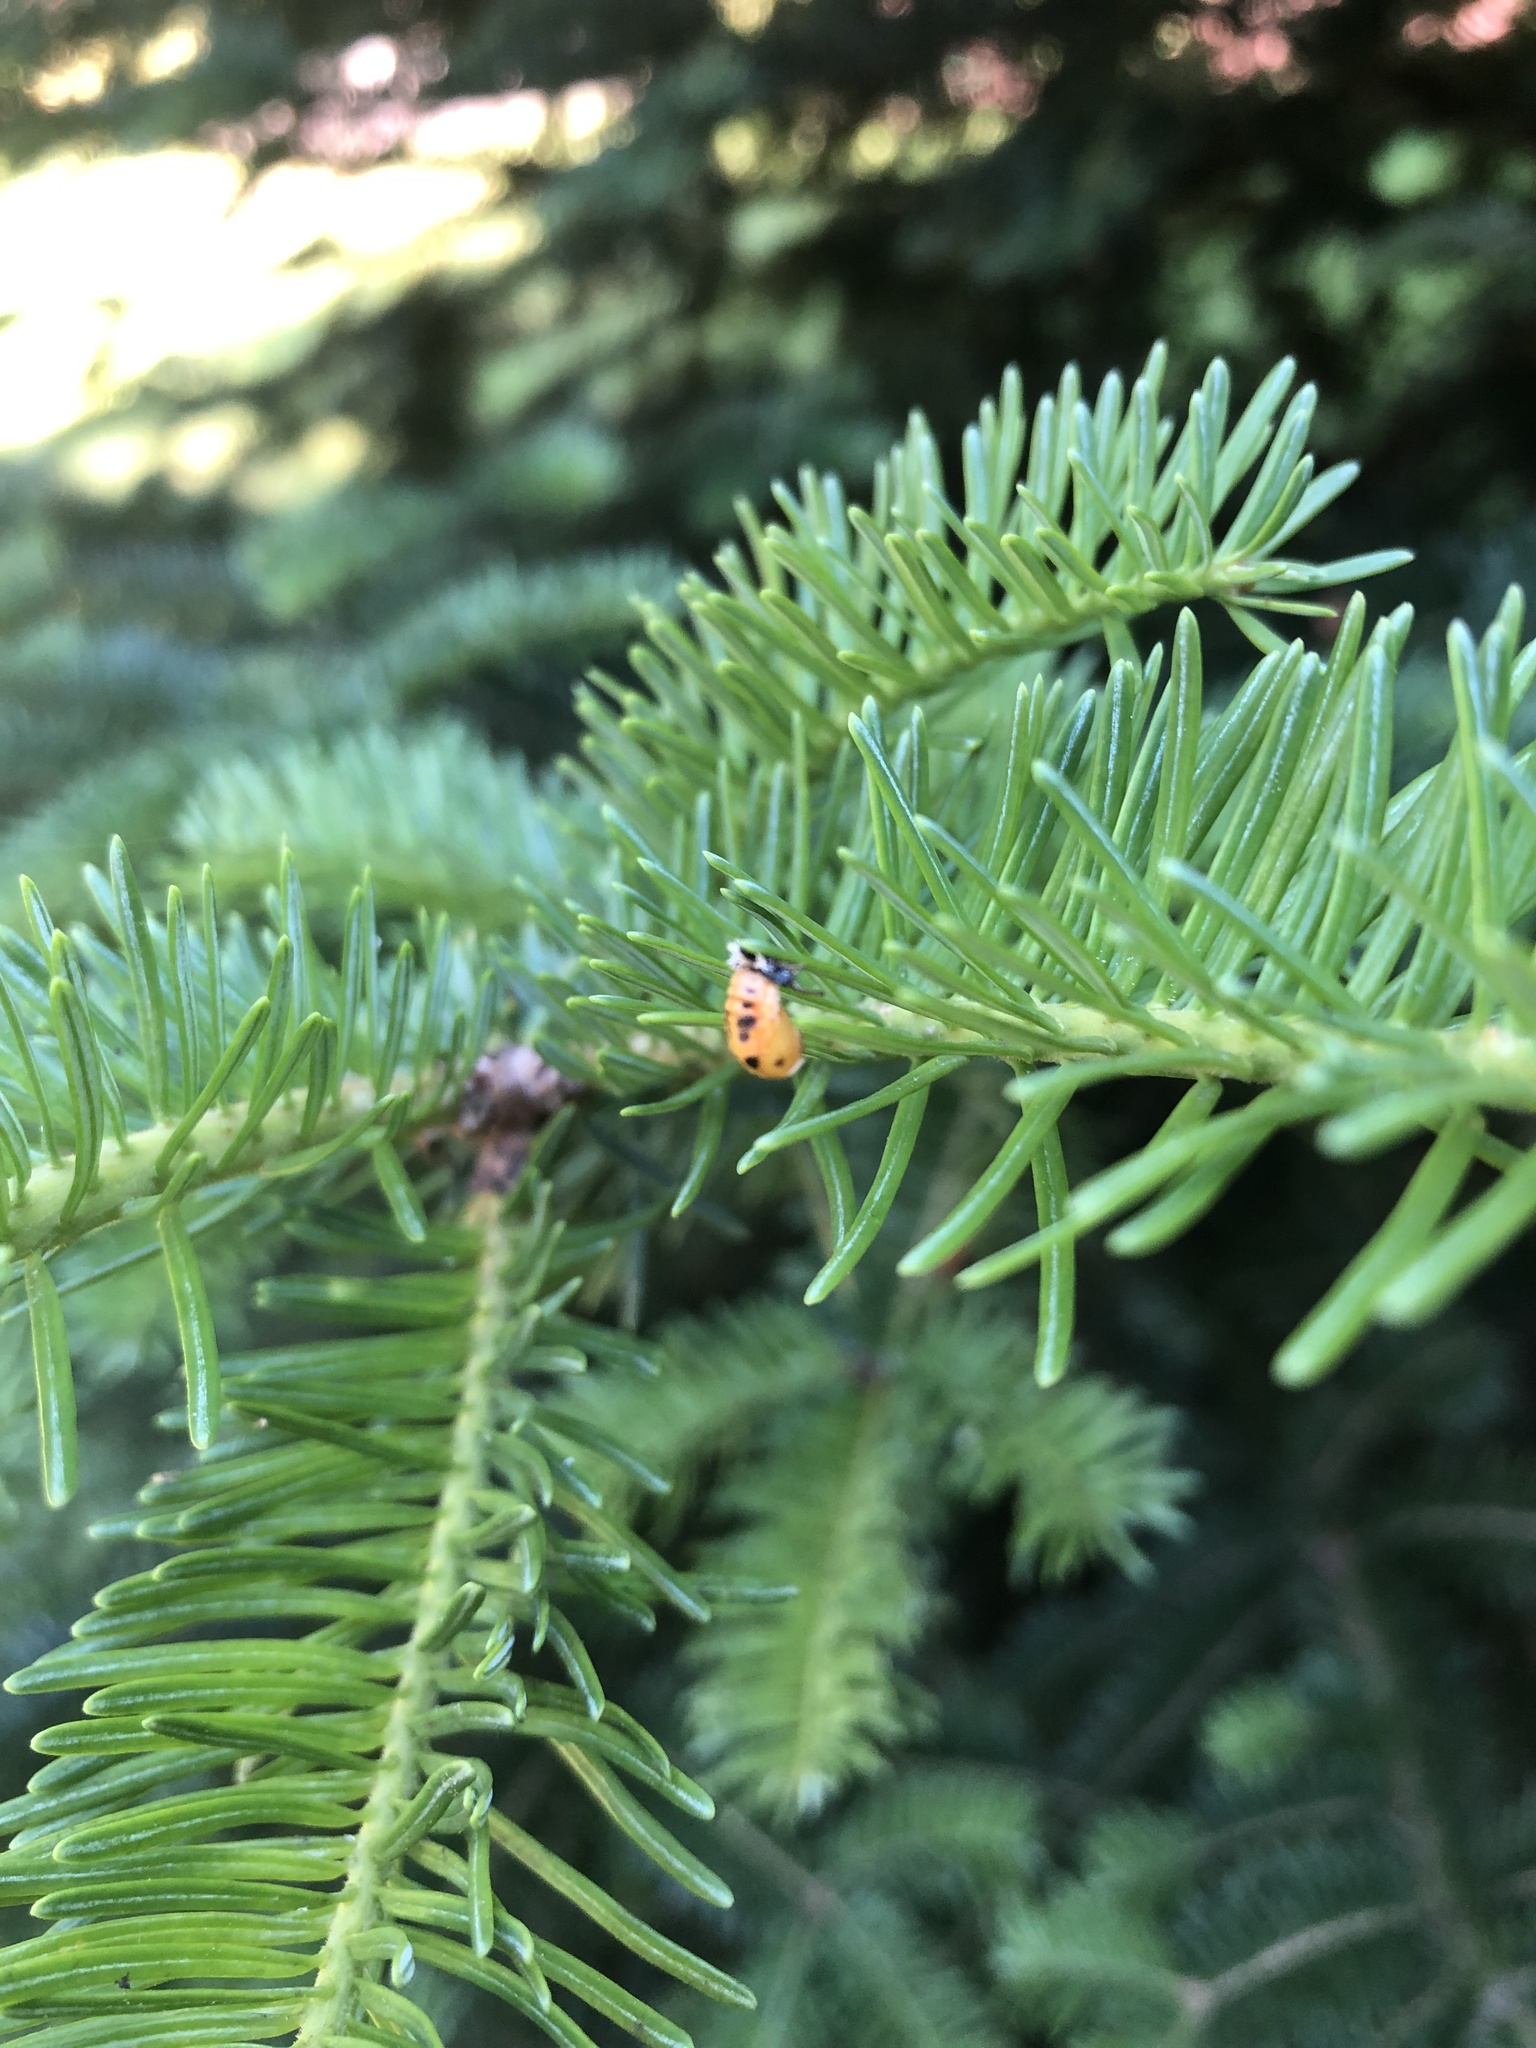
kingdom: Animalia
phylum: Arthropoda
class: Insecta
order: Coleoptera
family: Coccinellidae
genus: Harmonia
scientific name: Harmonia axyridis
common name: Harlequin ladybird
